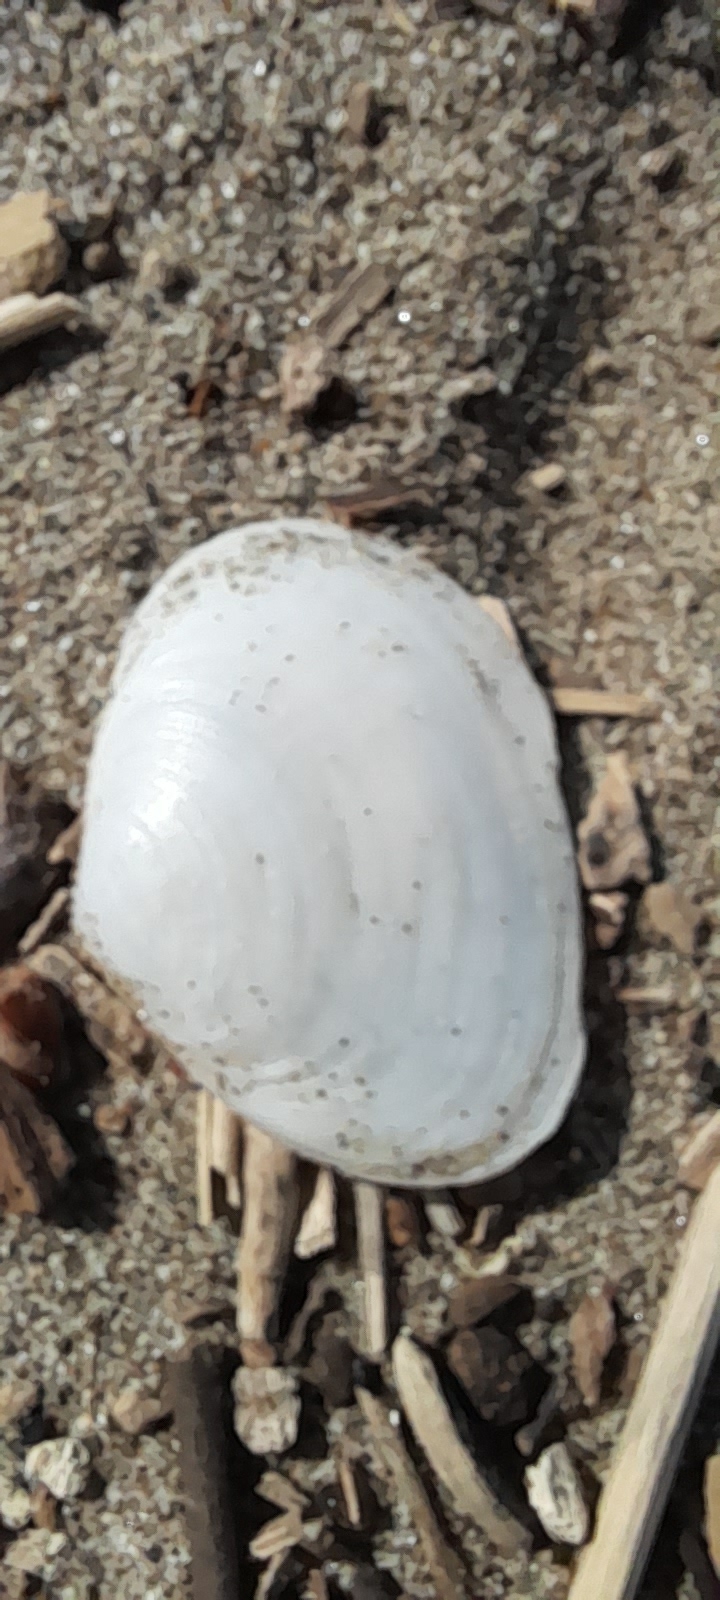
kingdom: Animalia
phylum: Mollusca
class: Bivalvia
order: Cardiida
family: Semelidae
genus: Scrobicularia
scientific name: Scrobicularia plana
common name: Peppery furrow shell
